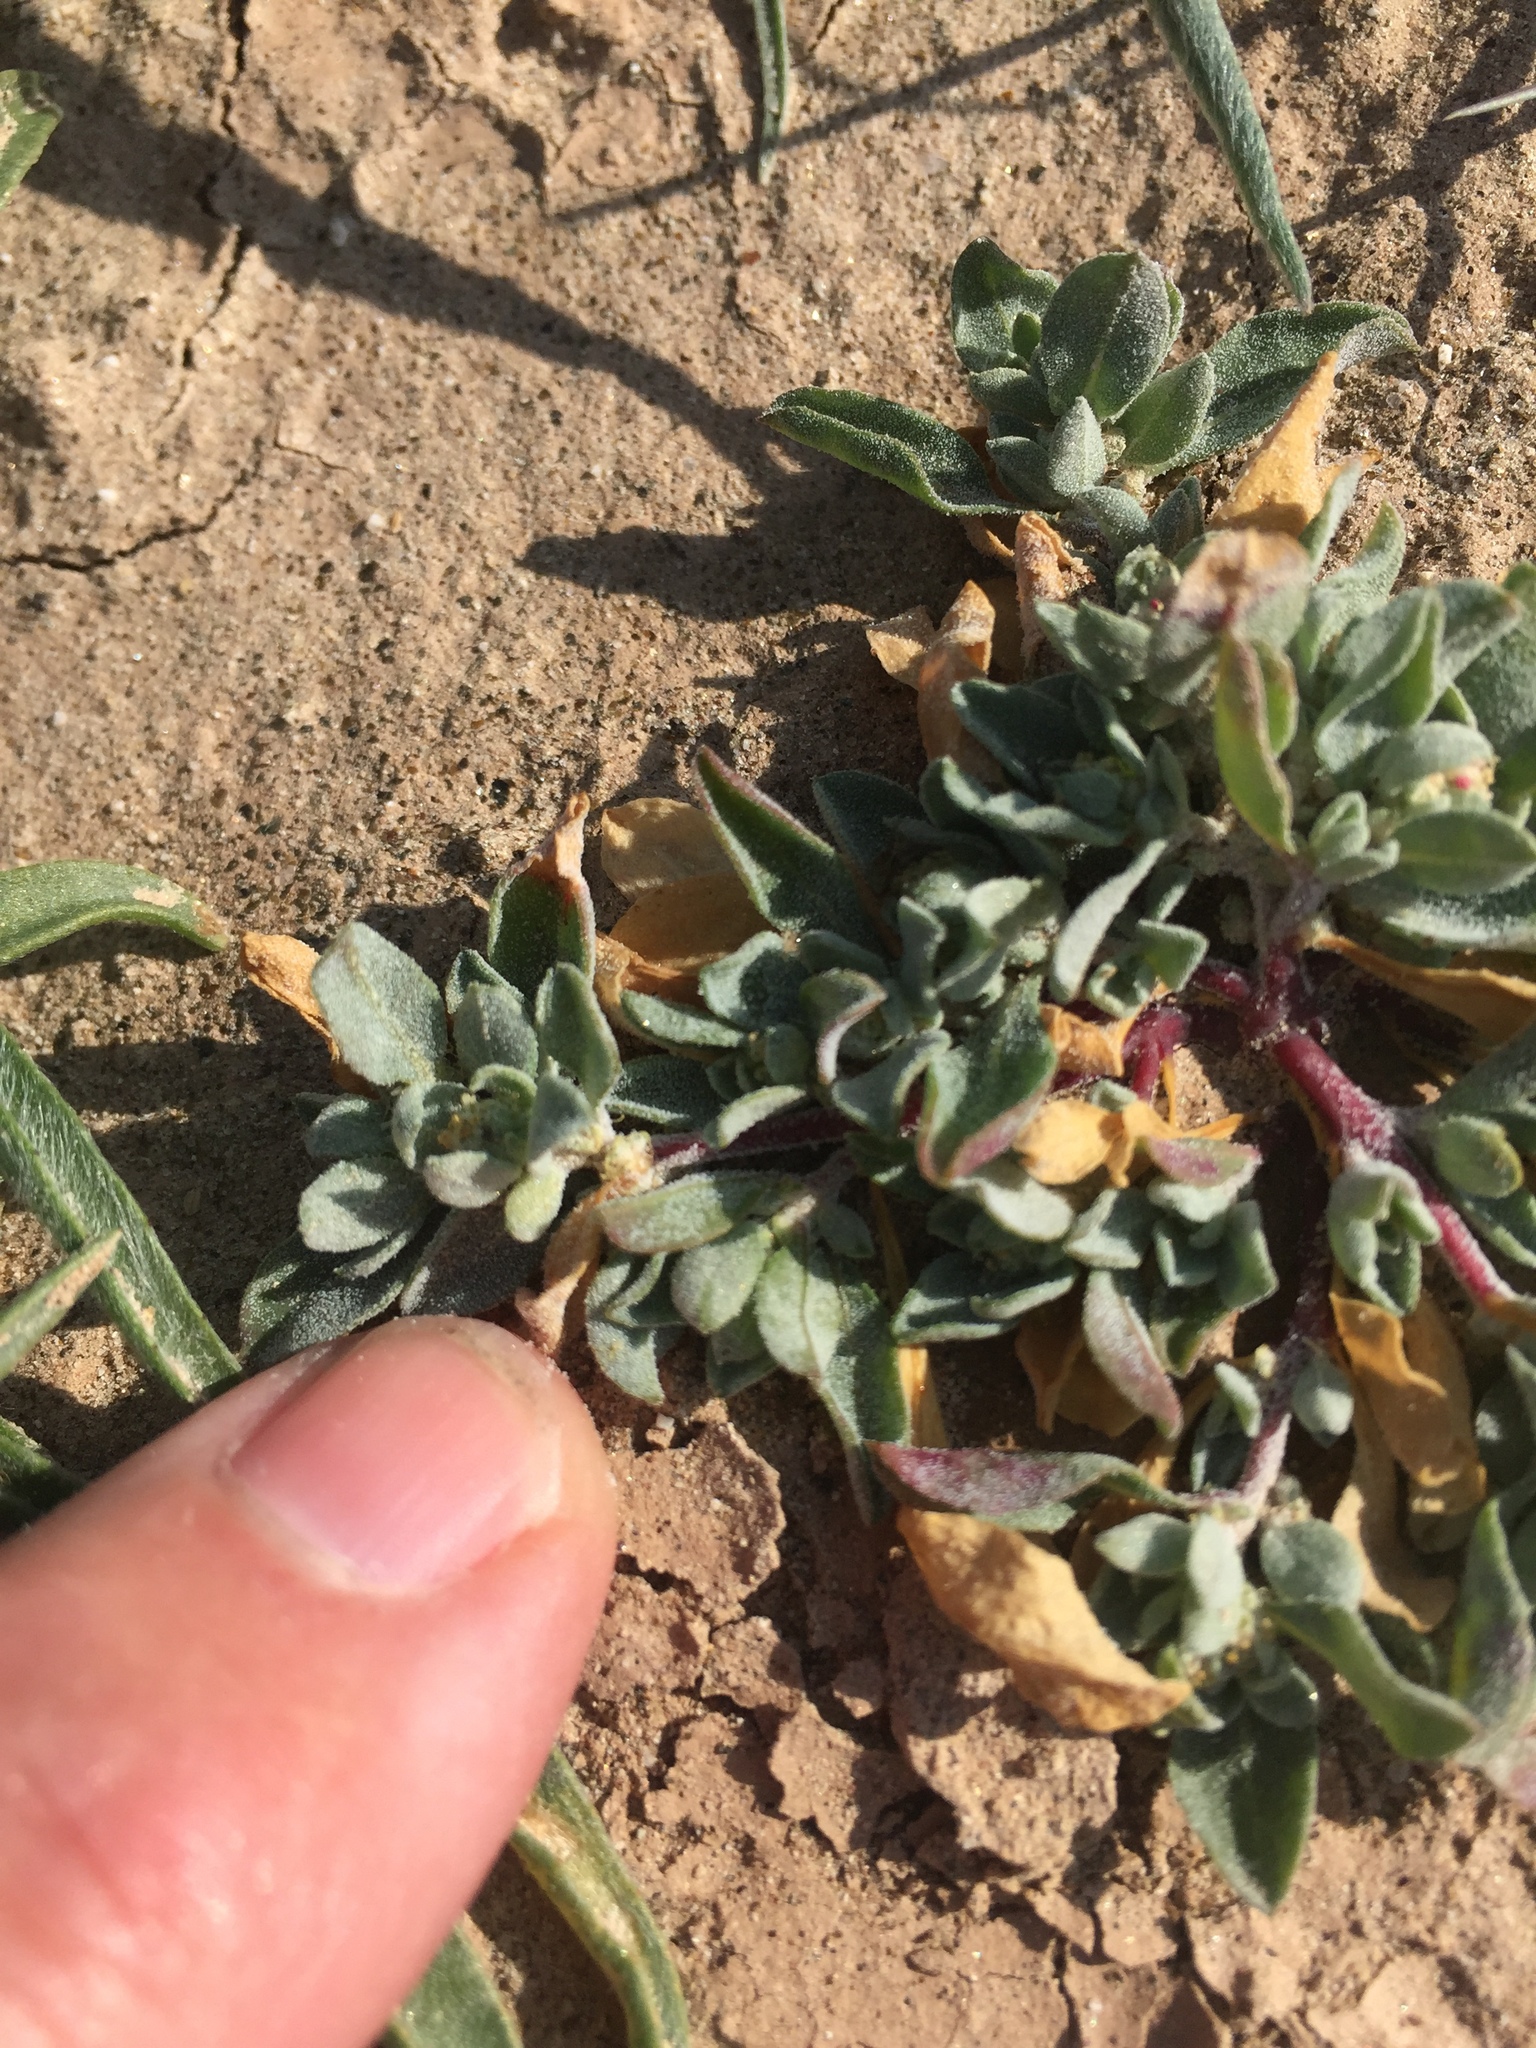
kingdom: Plantae
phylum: Tracheophyta
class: Magnoliopsida
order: Caryophyllales
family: Amaranthaceae
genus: Atriplex
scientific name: Atriplex elegans
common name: Wheelscale orach
